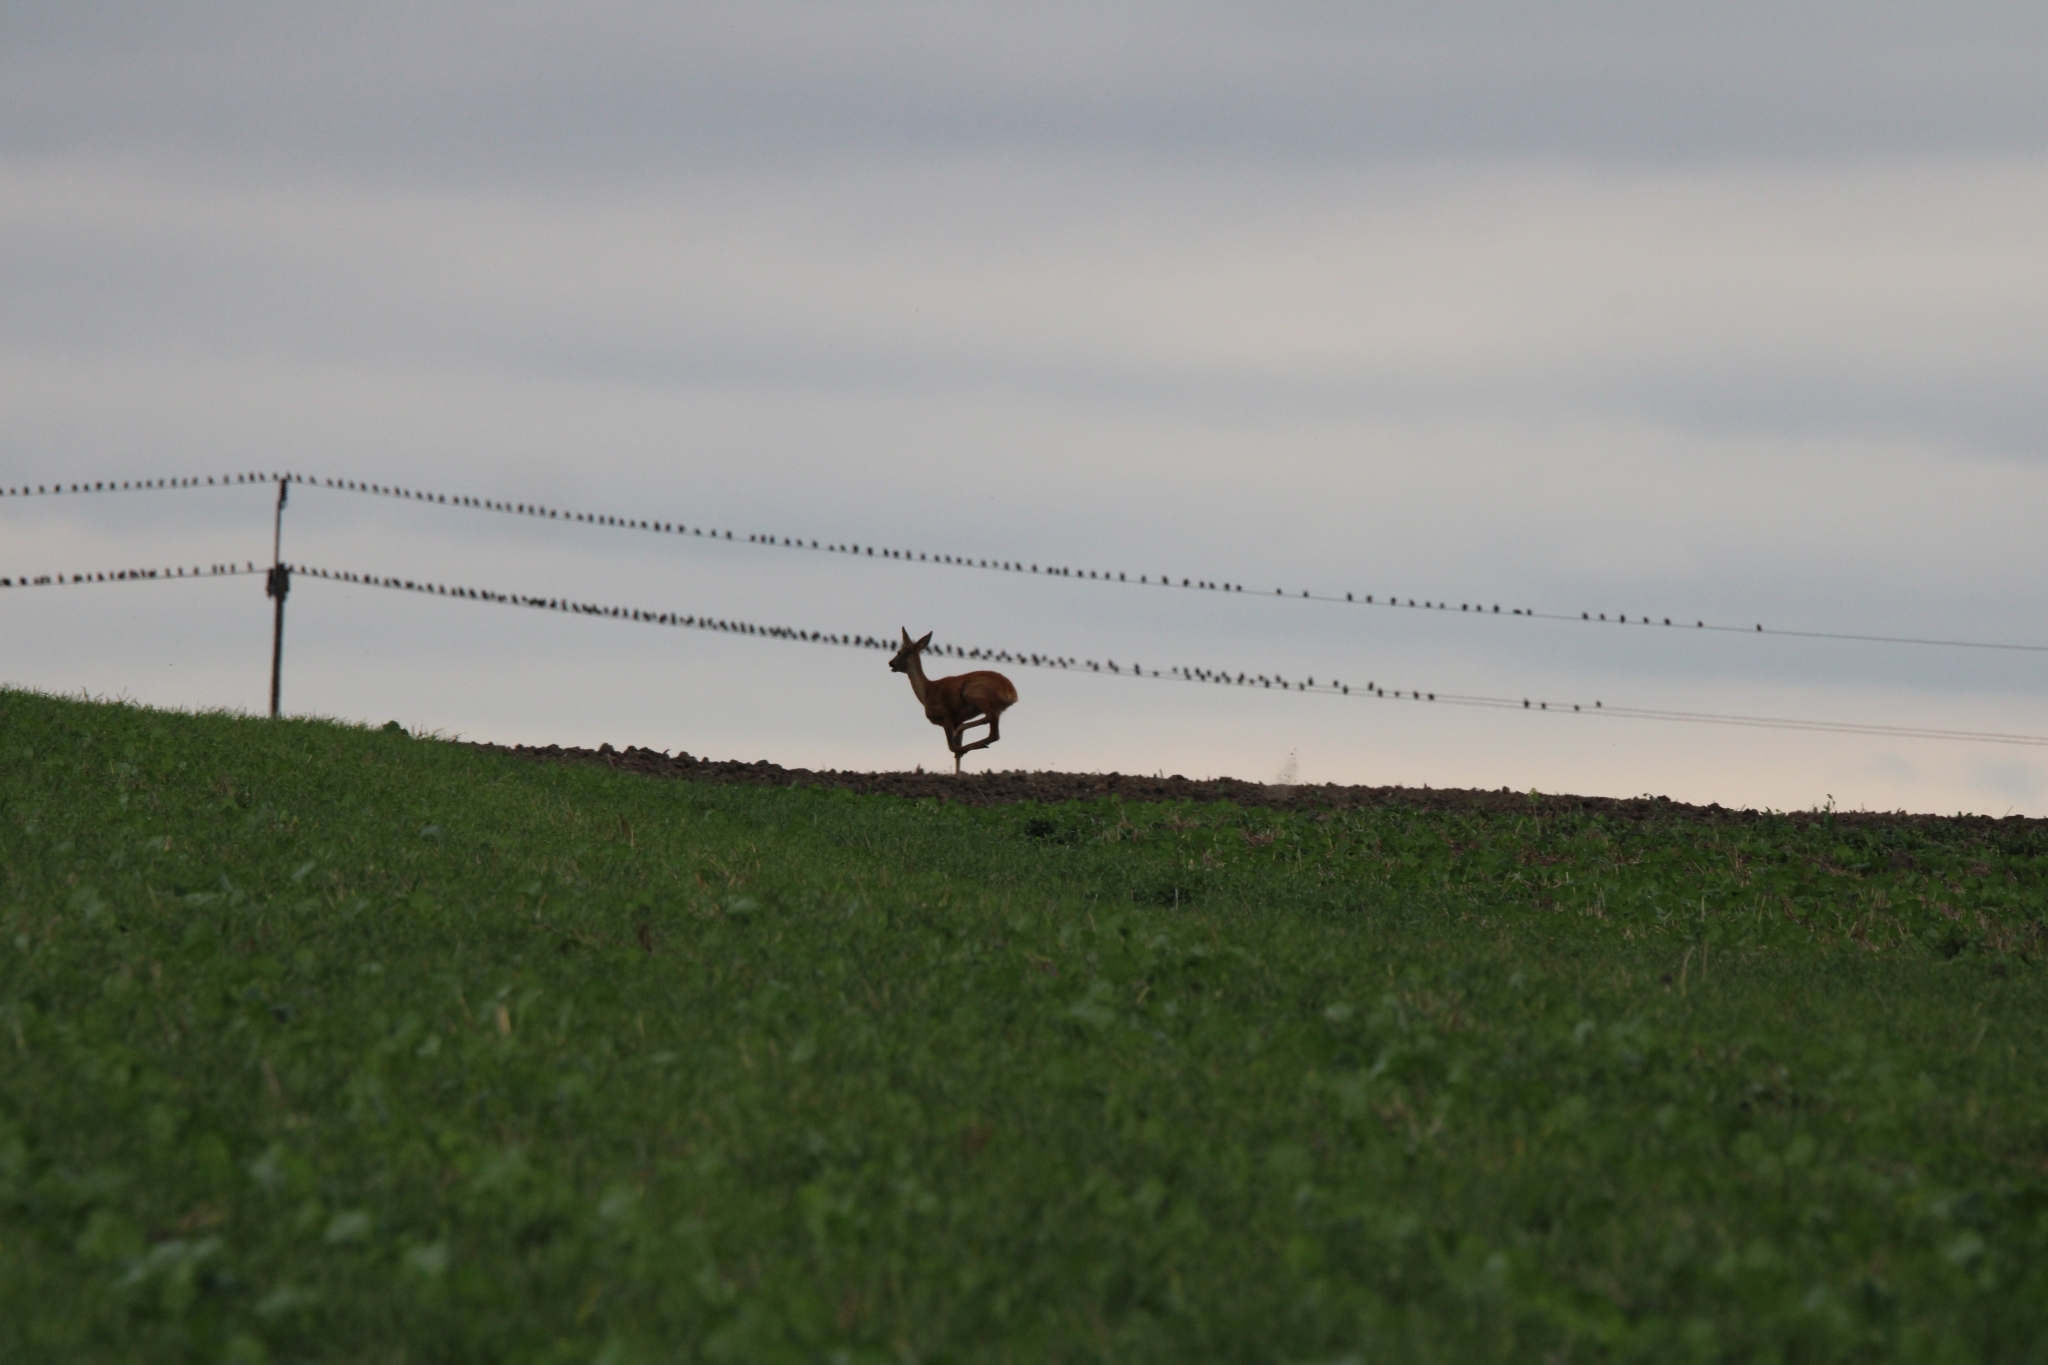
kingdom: Animalia
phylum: Chordata
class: Mammalia
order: Artiodactyla
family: Cervidae
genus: Capreolus
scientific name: Capreolus capreolus
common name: Western roe deer
